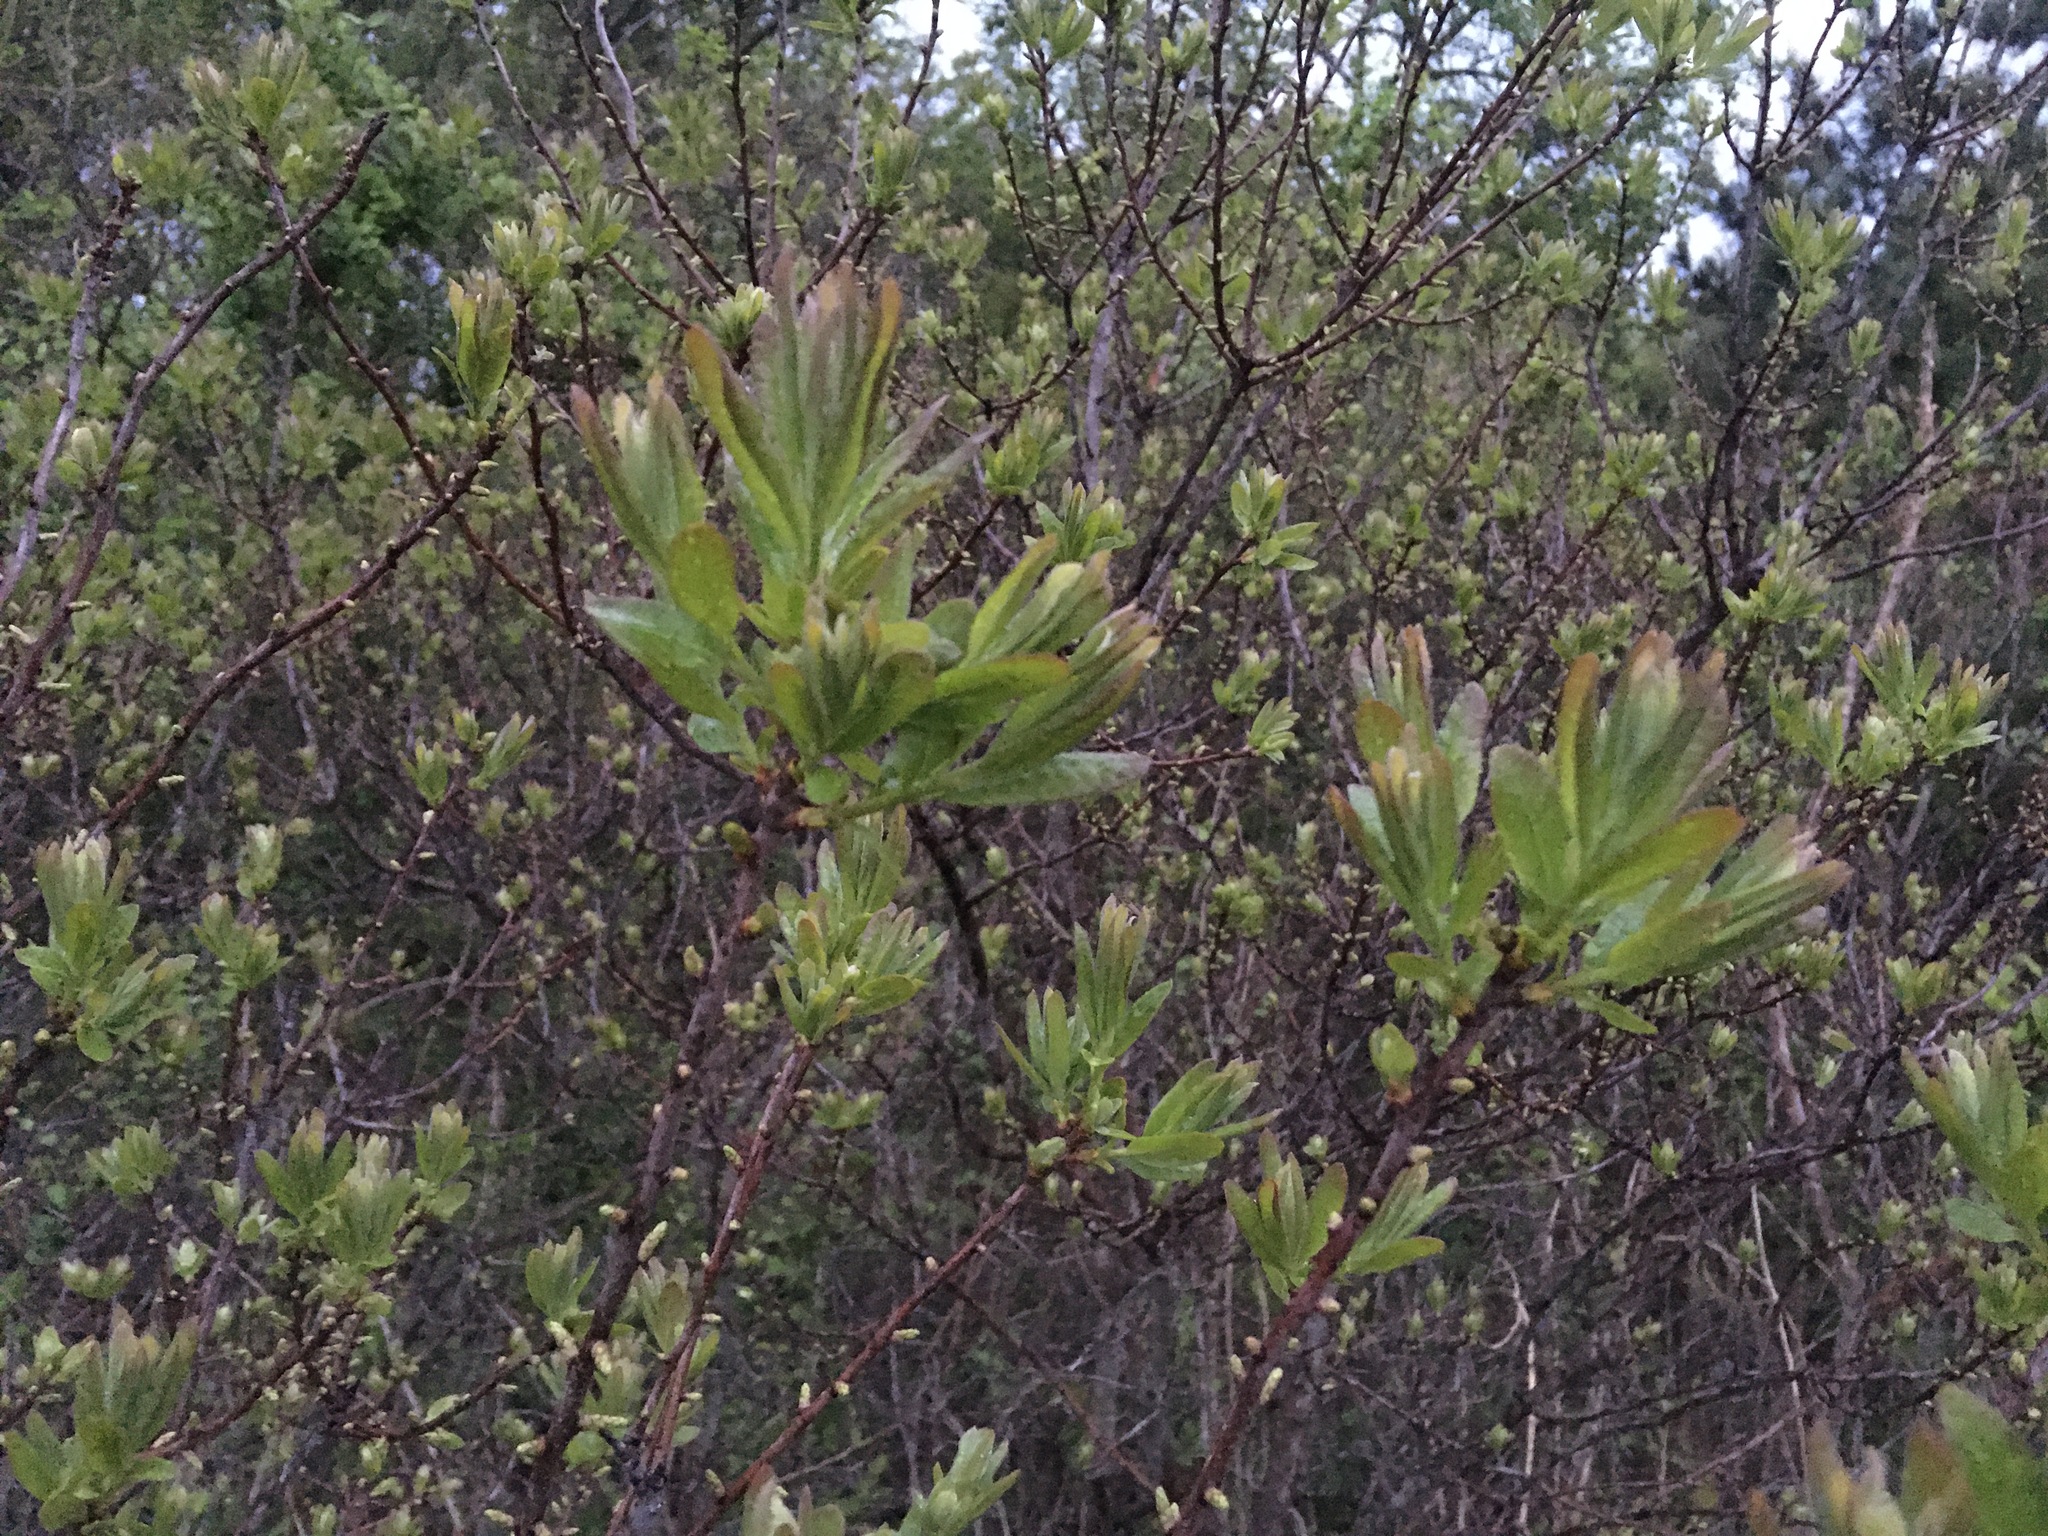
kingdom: Plantae
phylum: Tracheophyta
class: Magnoliopsida
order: Fagales
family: Myricaceae
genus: Morella
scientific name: Morella pensylvanica
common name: Northern bayberry
